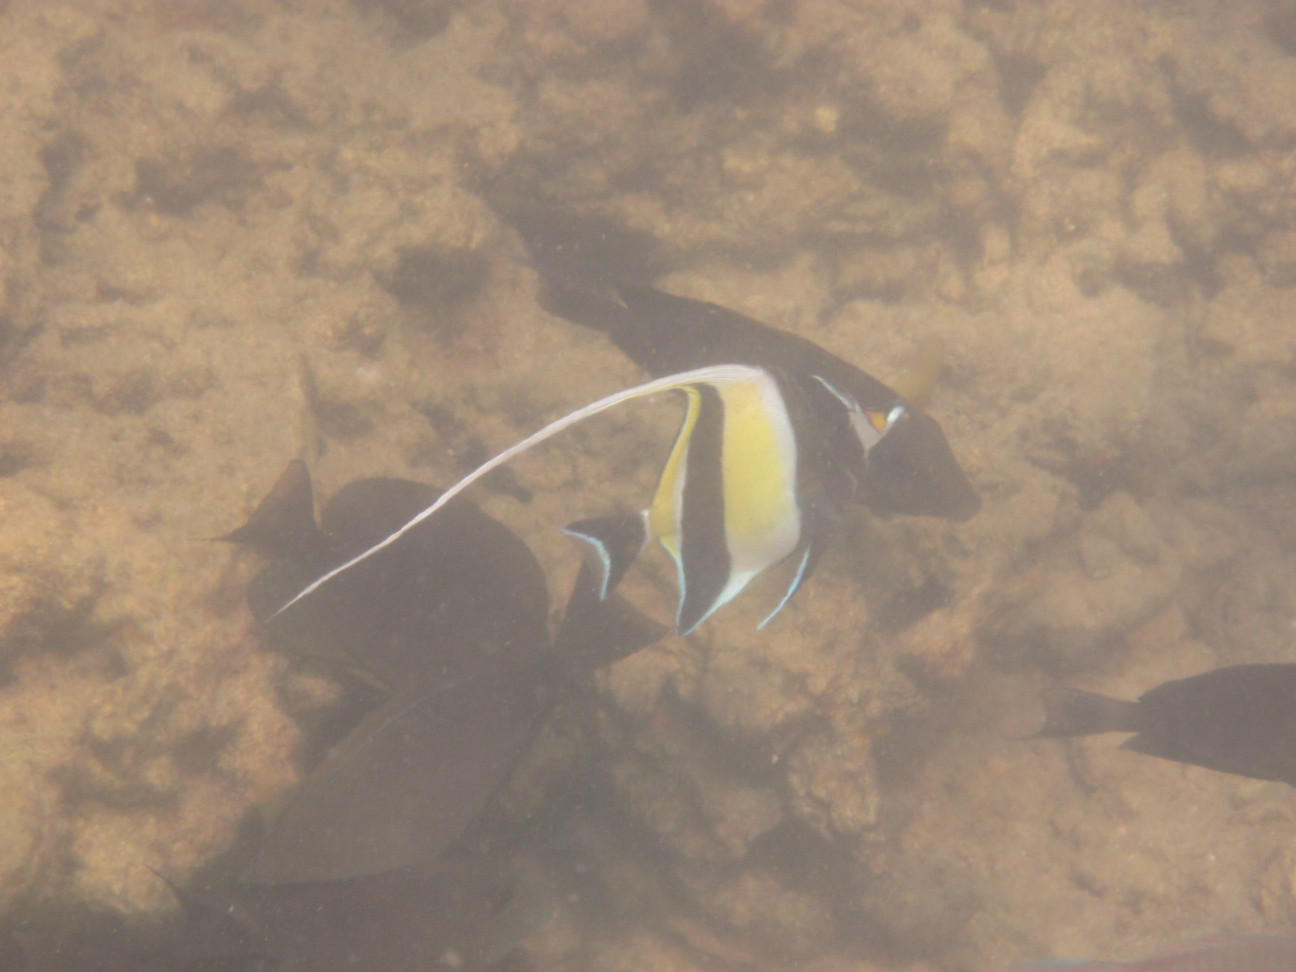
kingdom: Animalia
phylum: Chordata
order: Perciformes
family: Zanclidae
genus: Zanclus
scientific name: Zanclus cornutus
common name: Moorish idol
